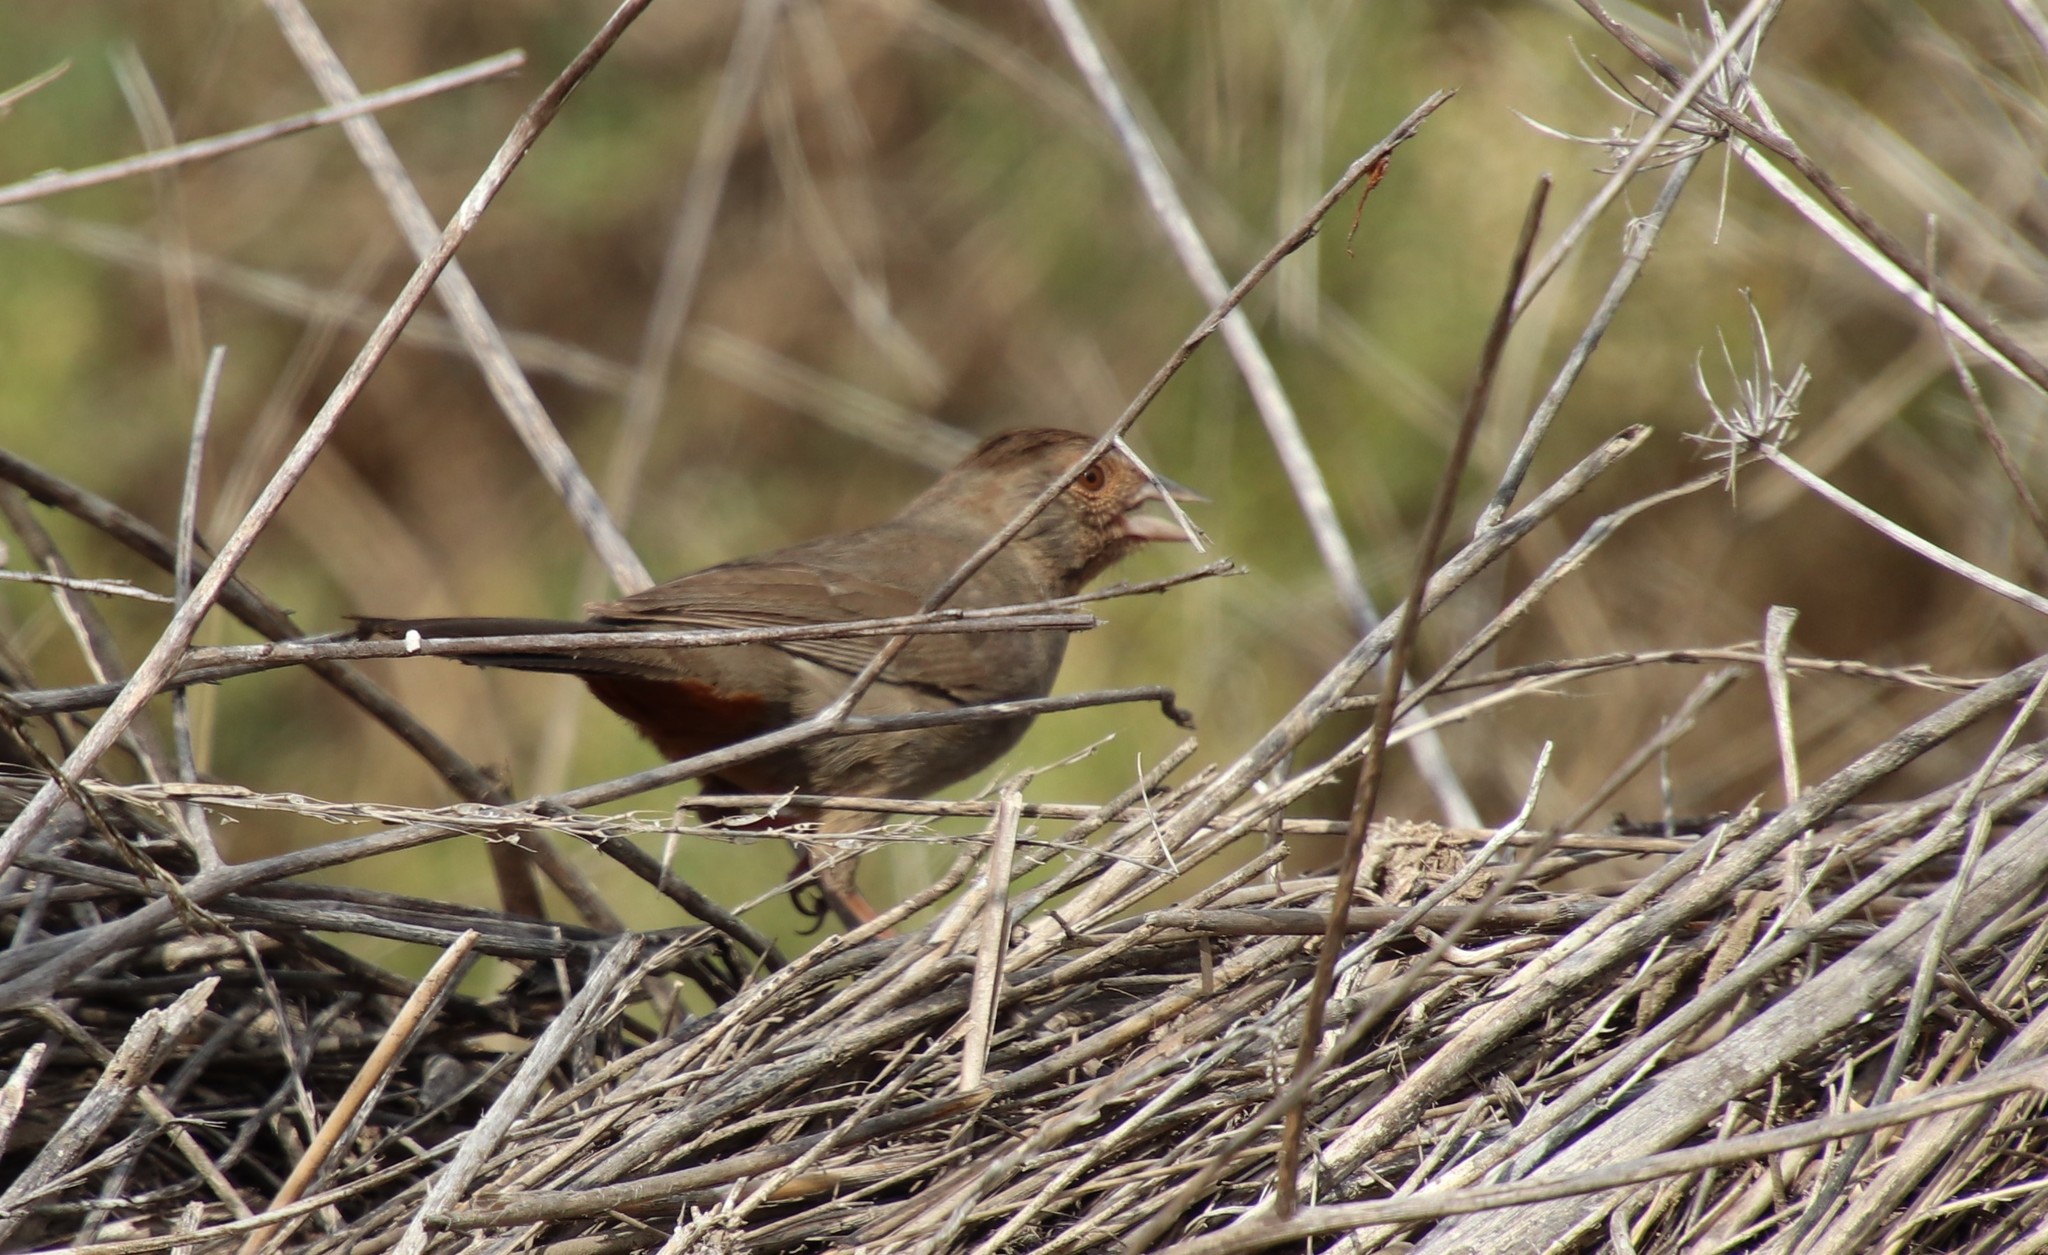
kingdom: Animalia
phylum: Chordata
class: Aves
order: Passeriformes
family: Passerellidae
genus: Melozone
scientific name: Melozone crissalis
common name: California towhee
